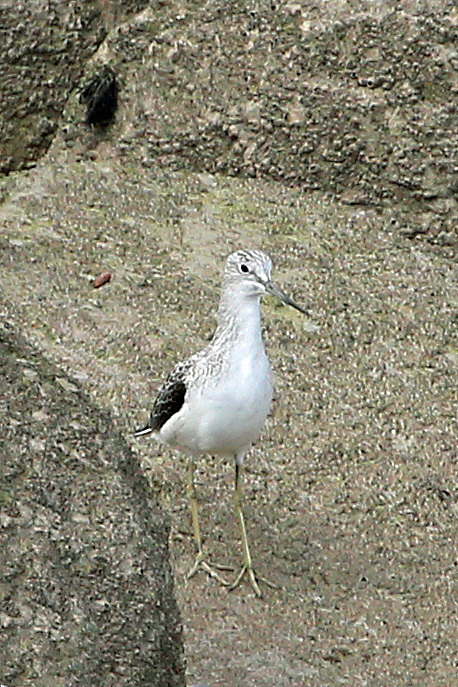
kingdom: Animalia
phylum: Chordata
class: Aves
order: Charadriiformes
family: Scolopacidae
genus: Tringa
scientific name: Tringa nebularia
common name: Common greenshank
